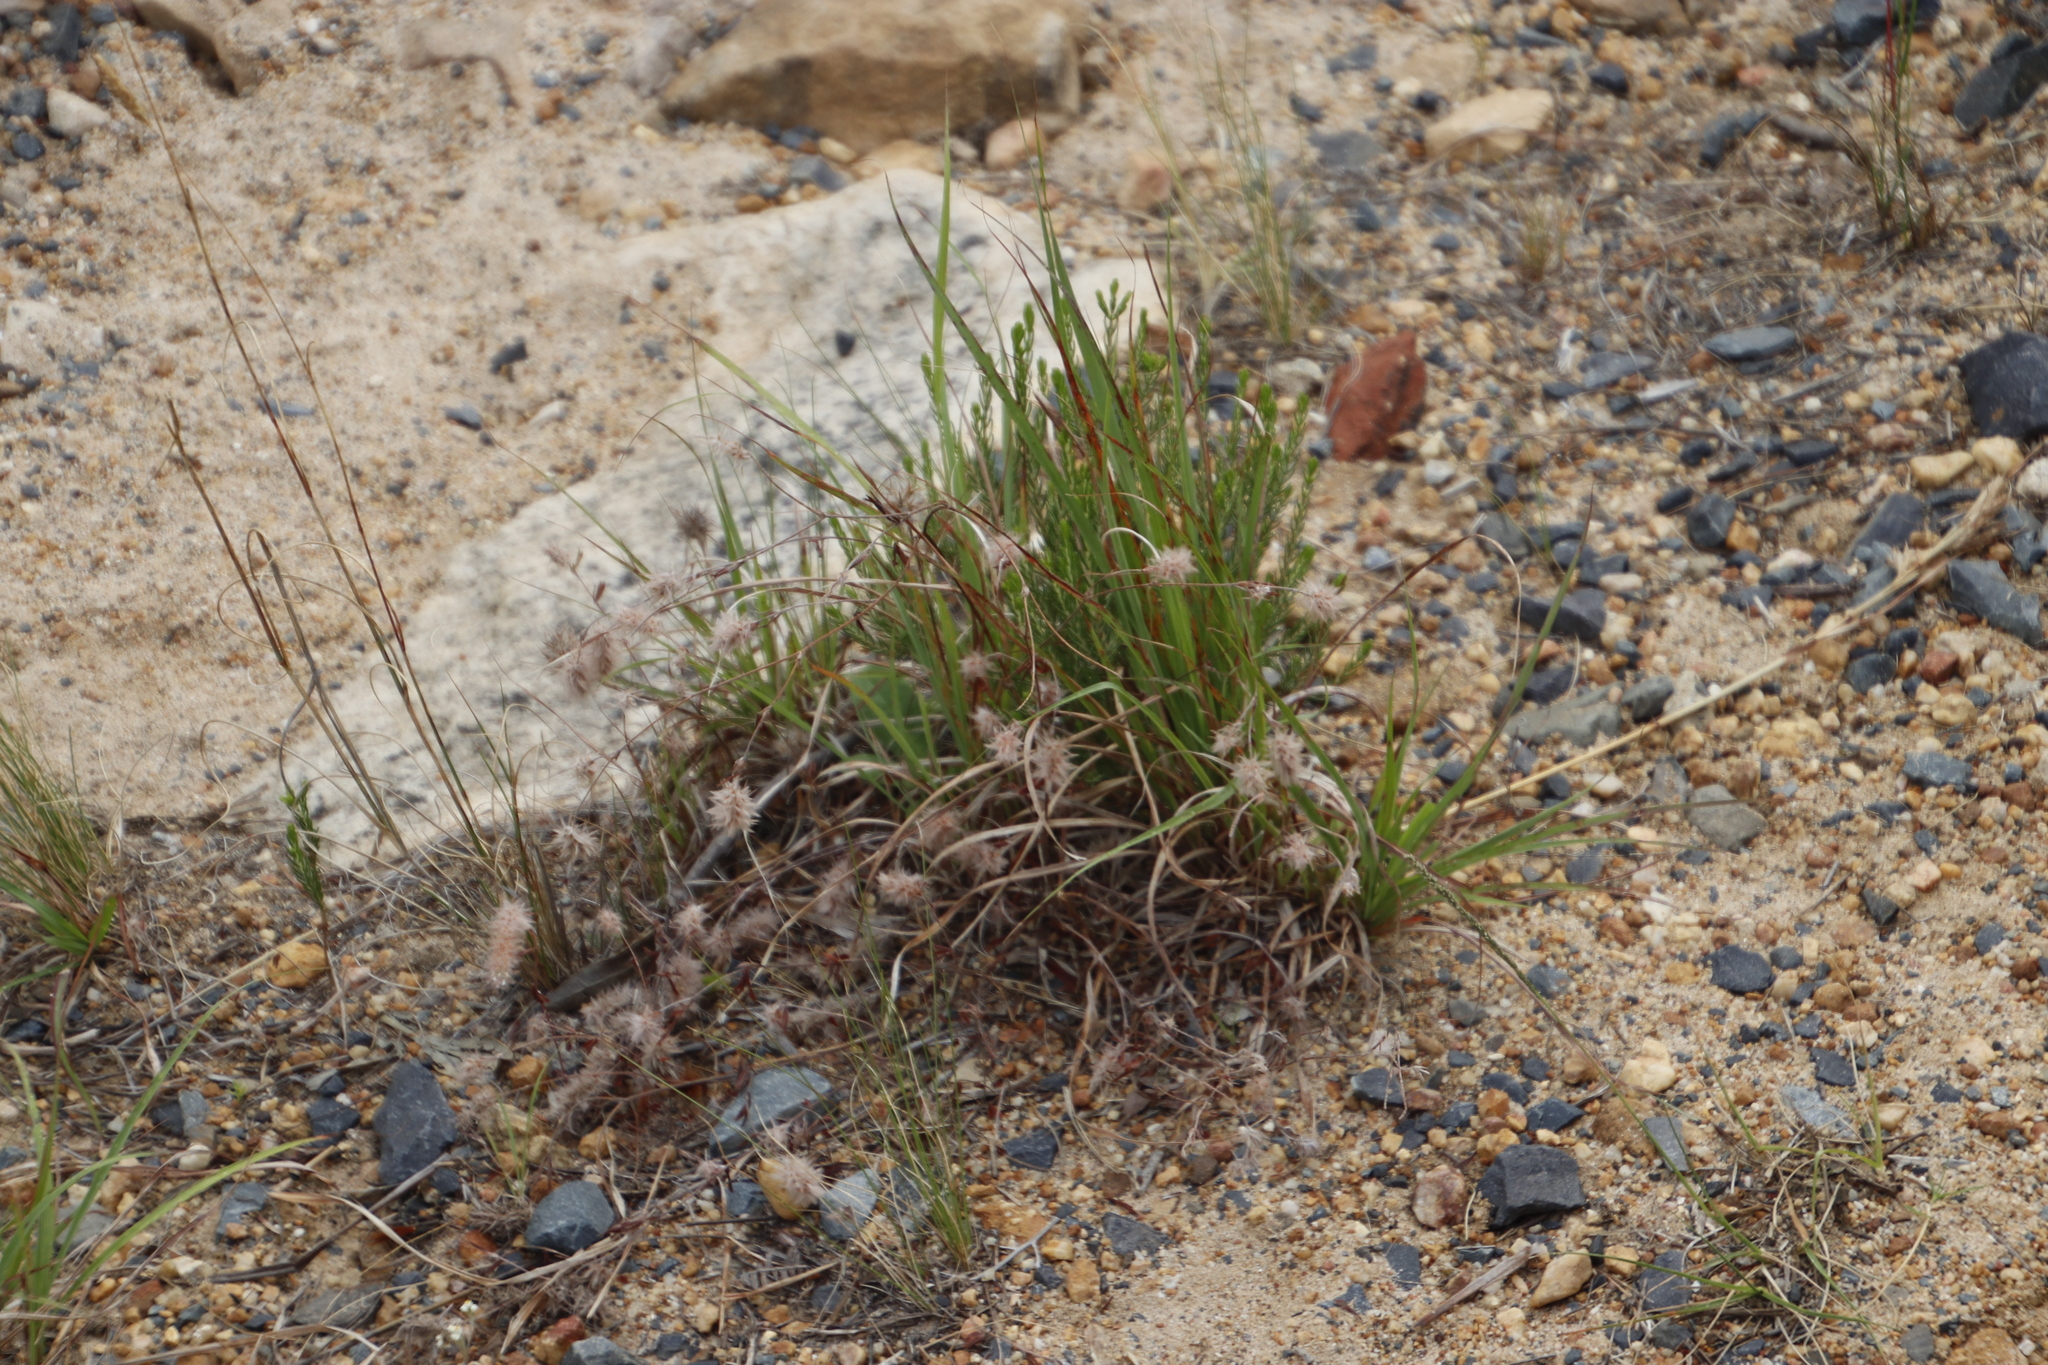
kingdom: Plantae
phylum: Tracheophyta
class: Magnoliopsida
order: Fabales
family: Fabaceae
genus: Trifolium
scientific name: Trifolium arvense
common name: Hare's-foot clover
